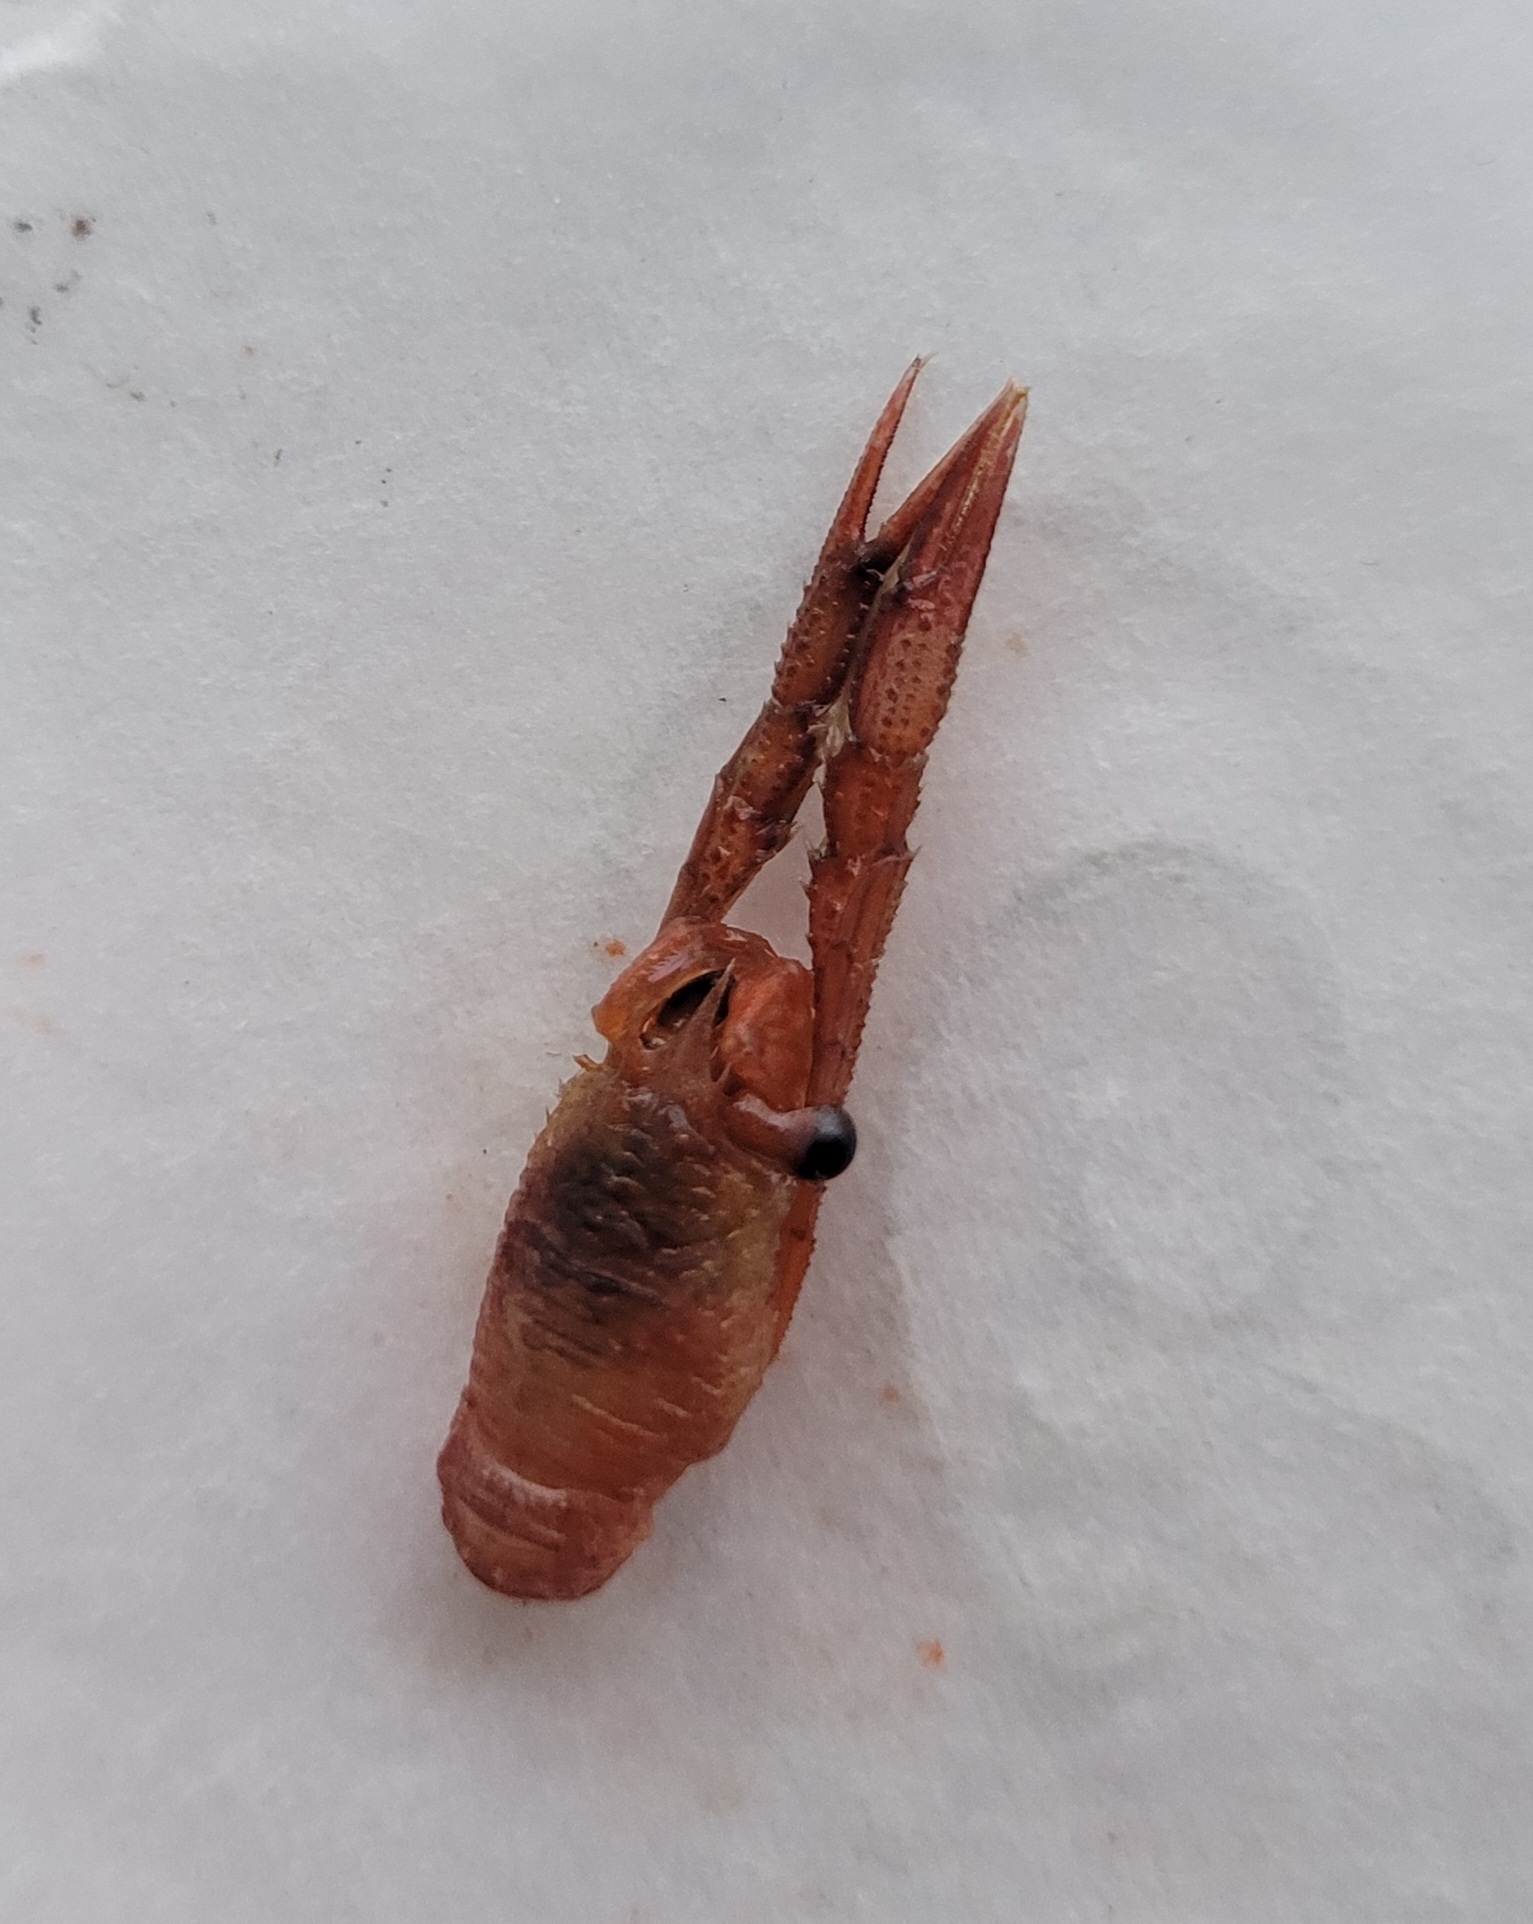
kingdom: Animalia
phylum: Arthropoda
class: Malacostraca
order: Decapoda
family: Munididae
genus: Grimothea
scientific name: Grimothea gregaria
